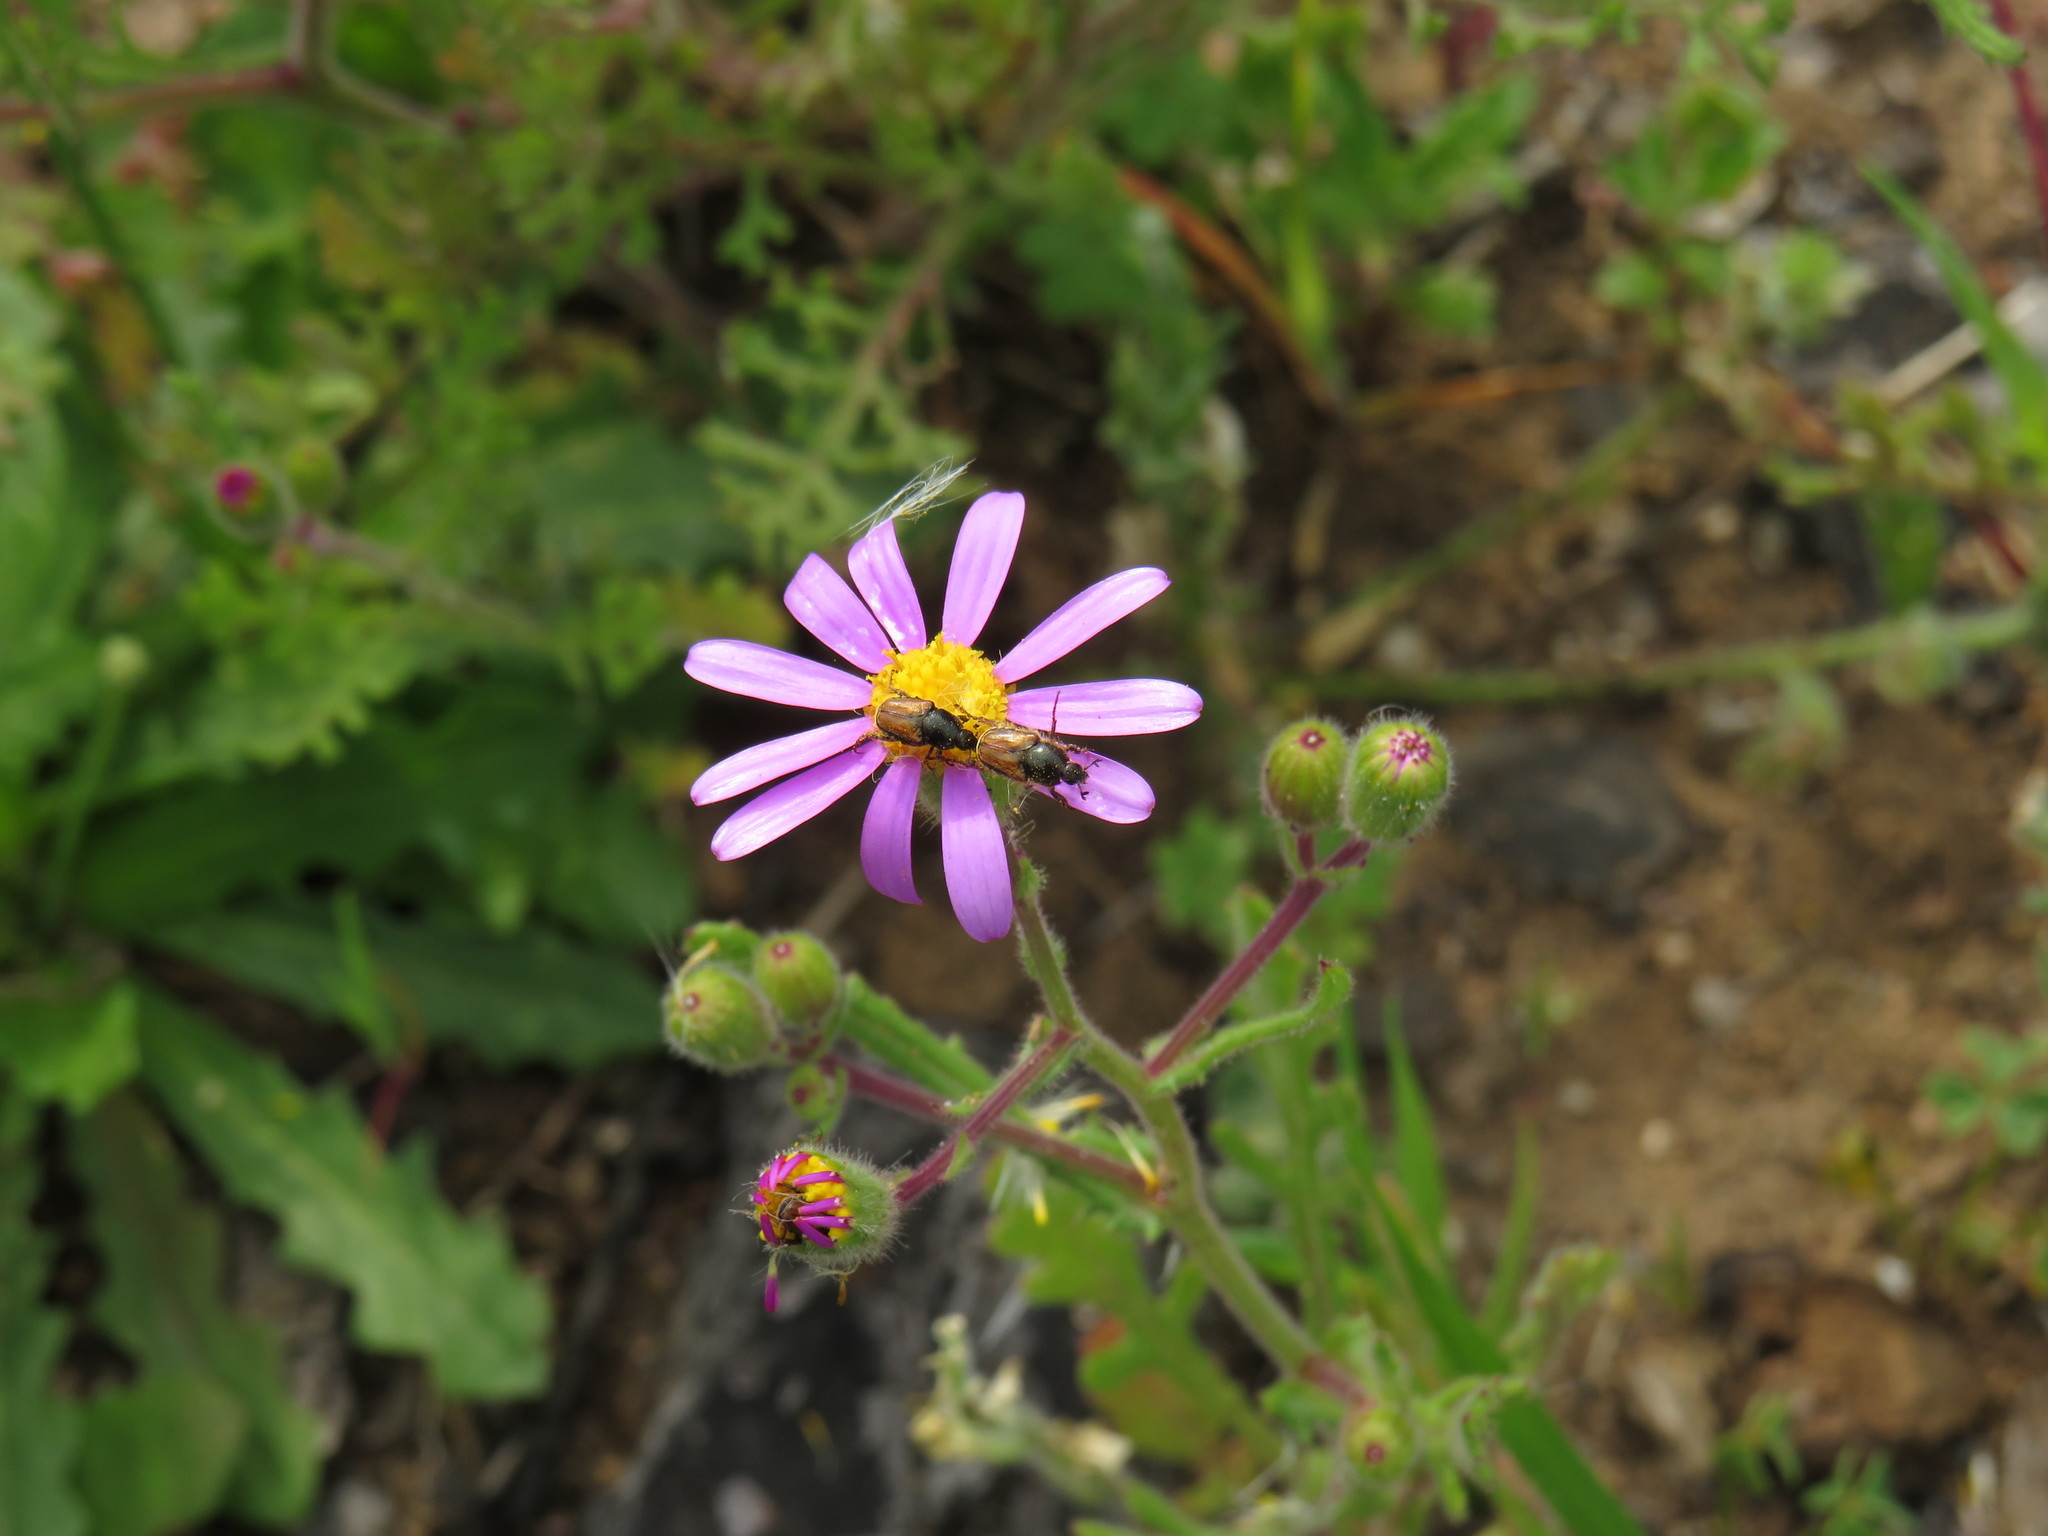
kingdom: Plantae
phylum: Tracheophyta
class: Magnoliopsida
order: Asterales
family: Asteraceae
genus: Senecio
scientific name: Senecio arenarius
